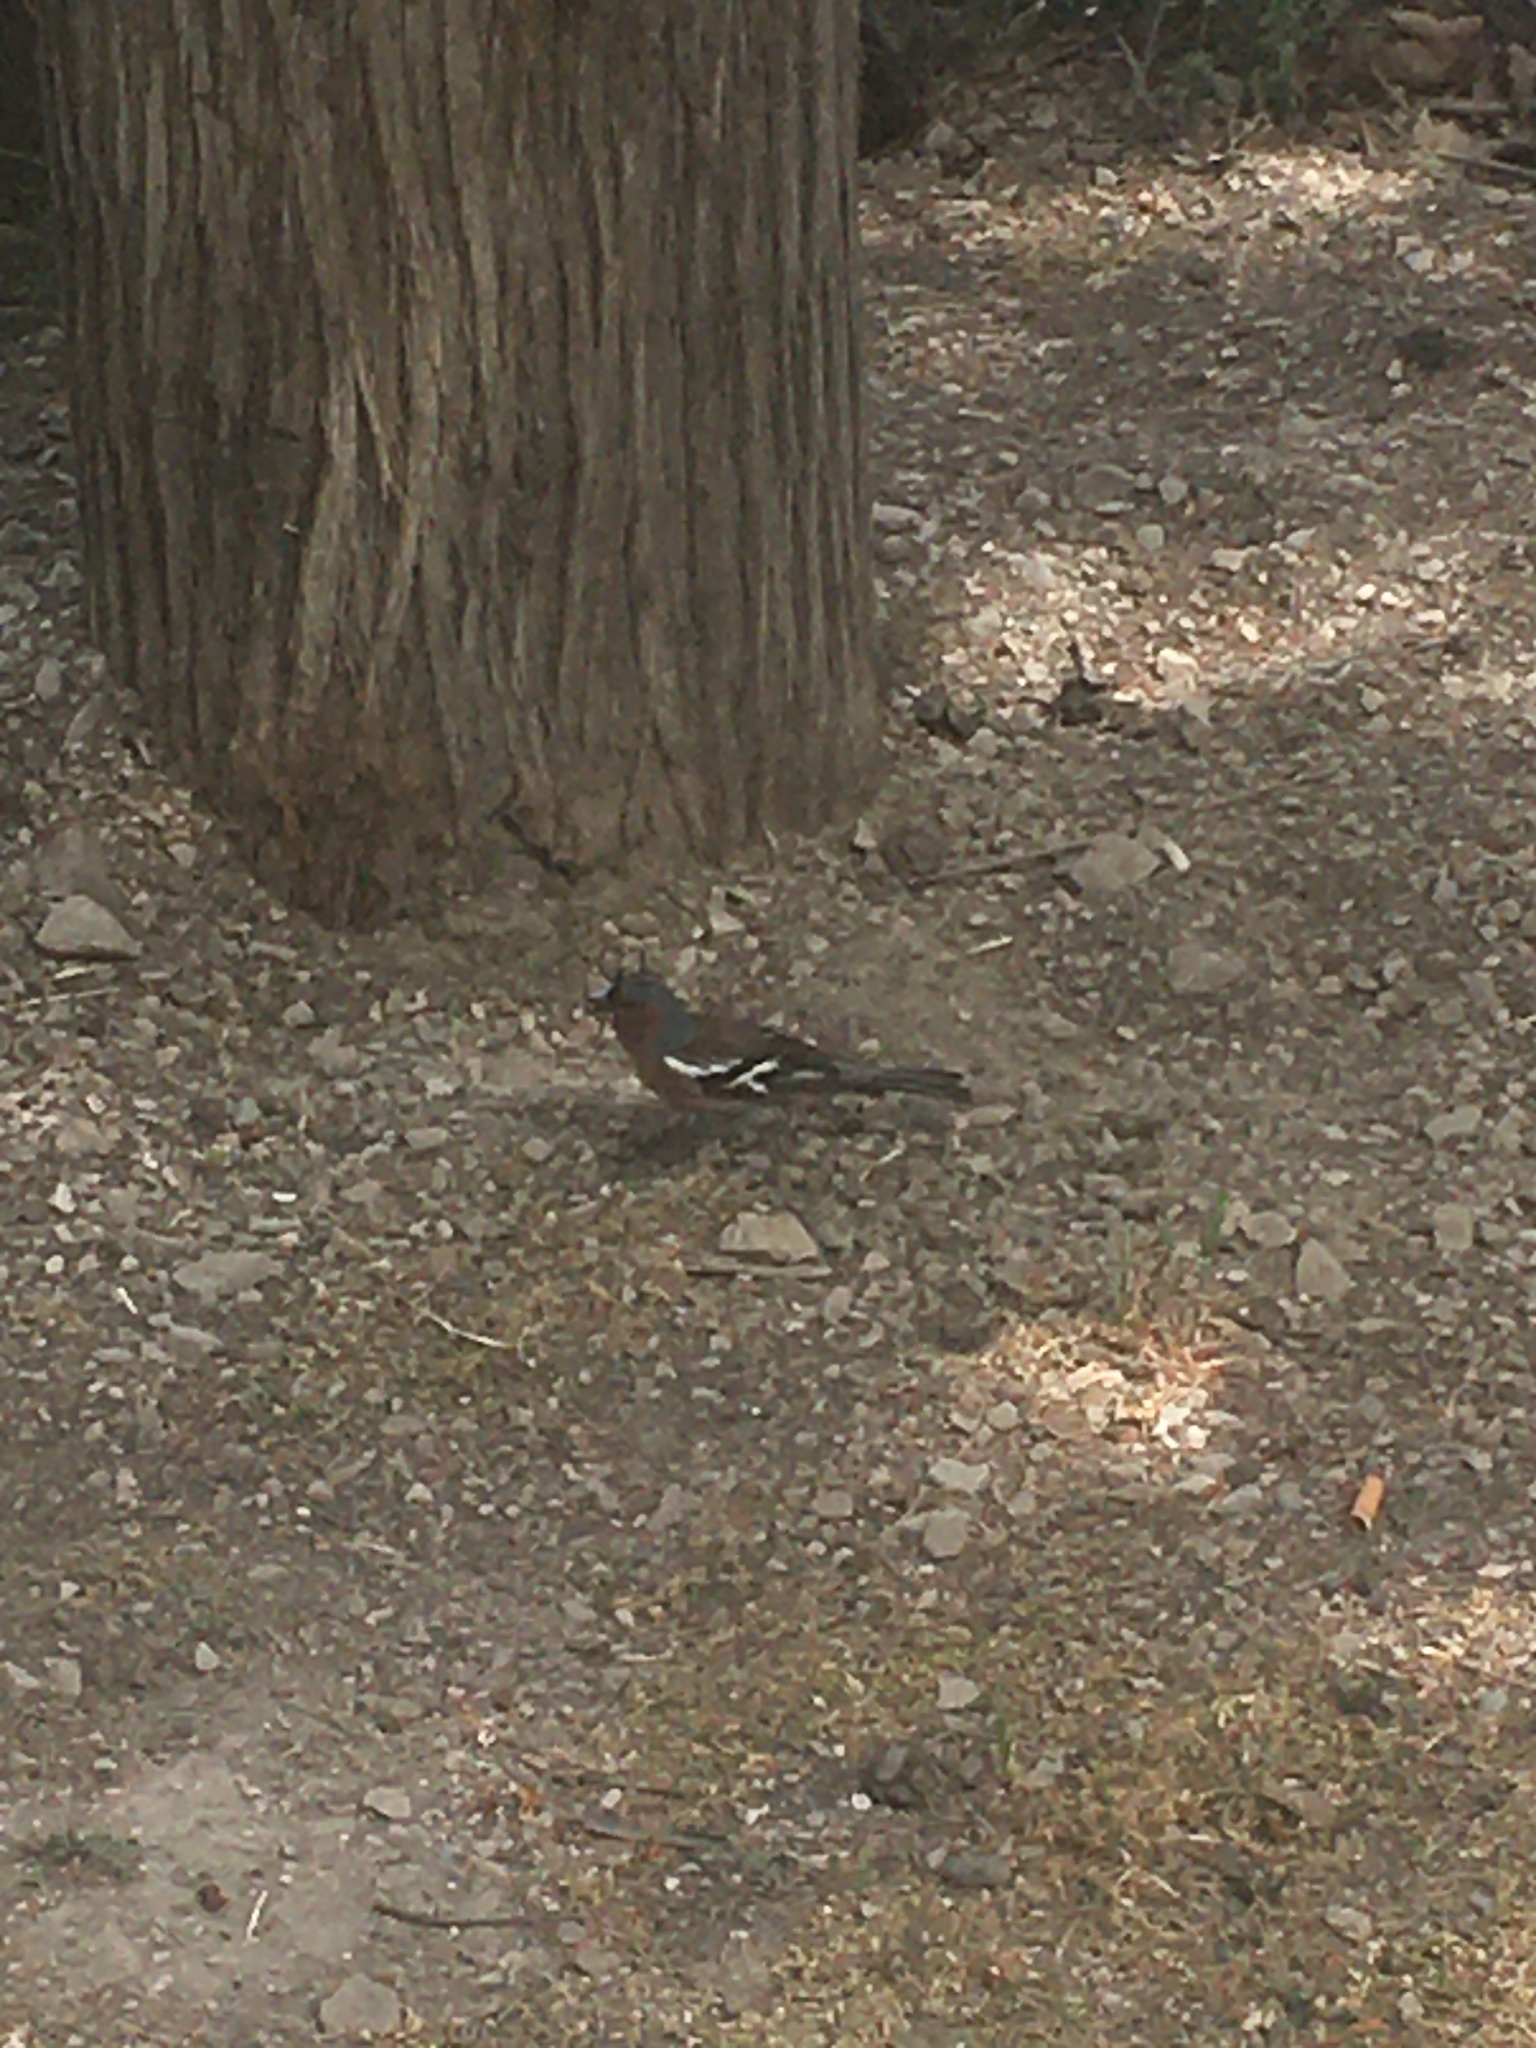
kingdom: Animalia
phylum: Chordata
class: Aves
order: Passeriformes
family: Fringillidae
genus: Fringilla
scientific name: Fringilla coelebs
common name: Common chaffinch
